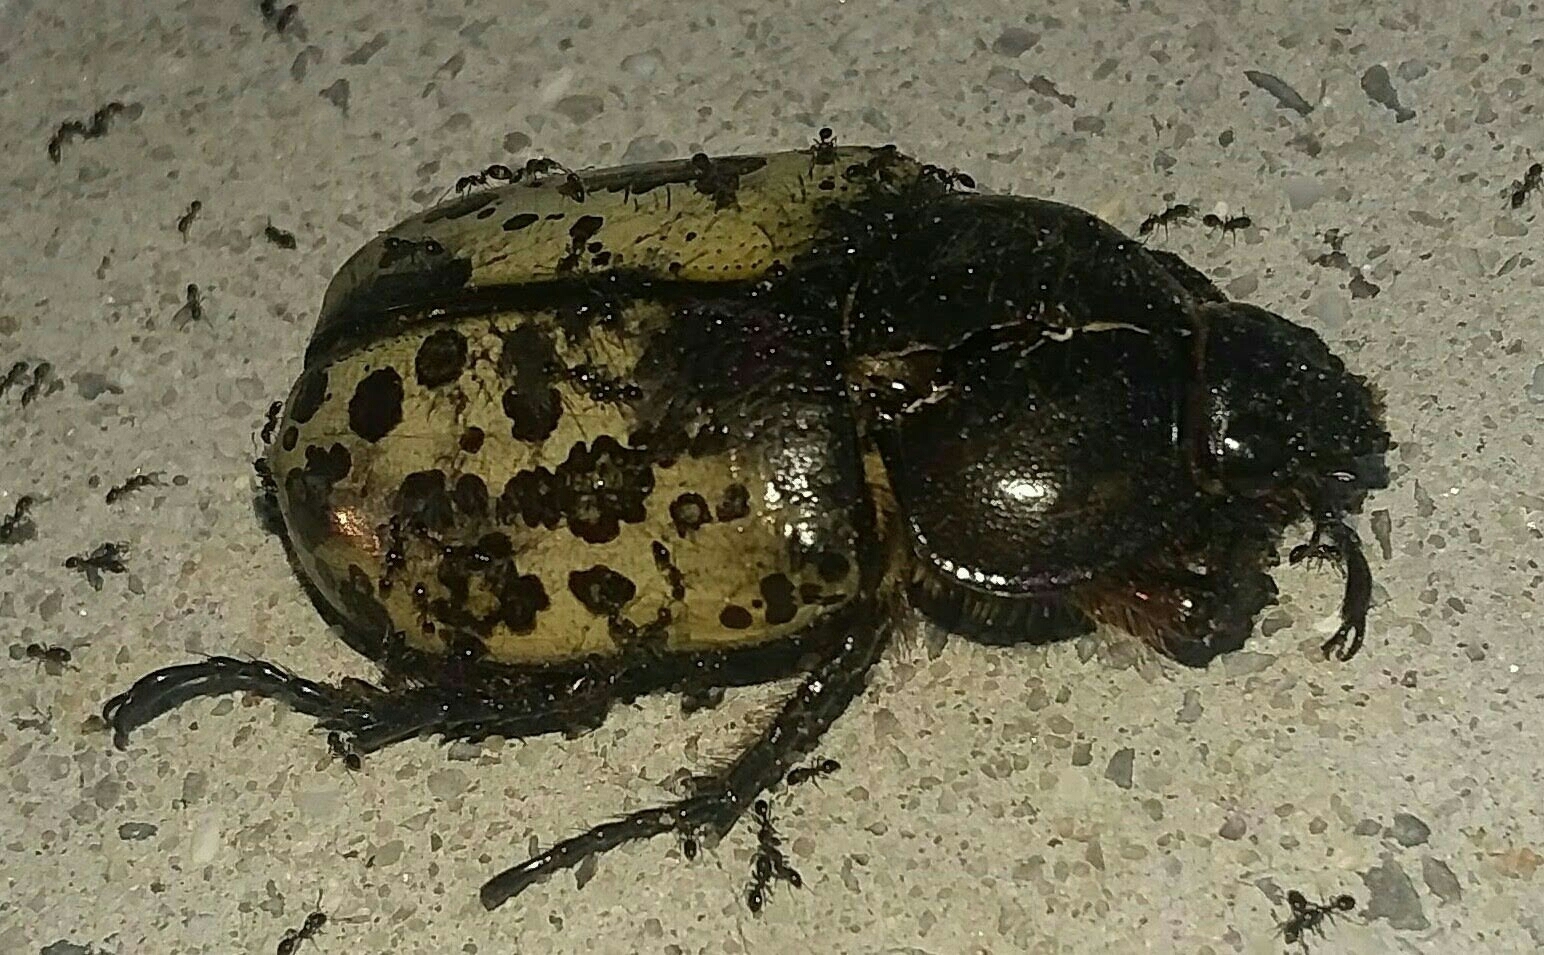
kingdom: Animalia
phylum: Arthropoda
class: Insecta
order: Coleoptera
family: Scarabaeidae
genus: Dynastes
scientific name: Dynastes tityus
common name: Eastern hercules beetle
